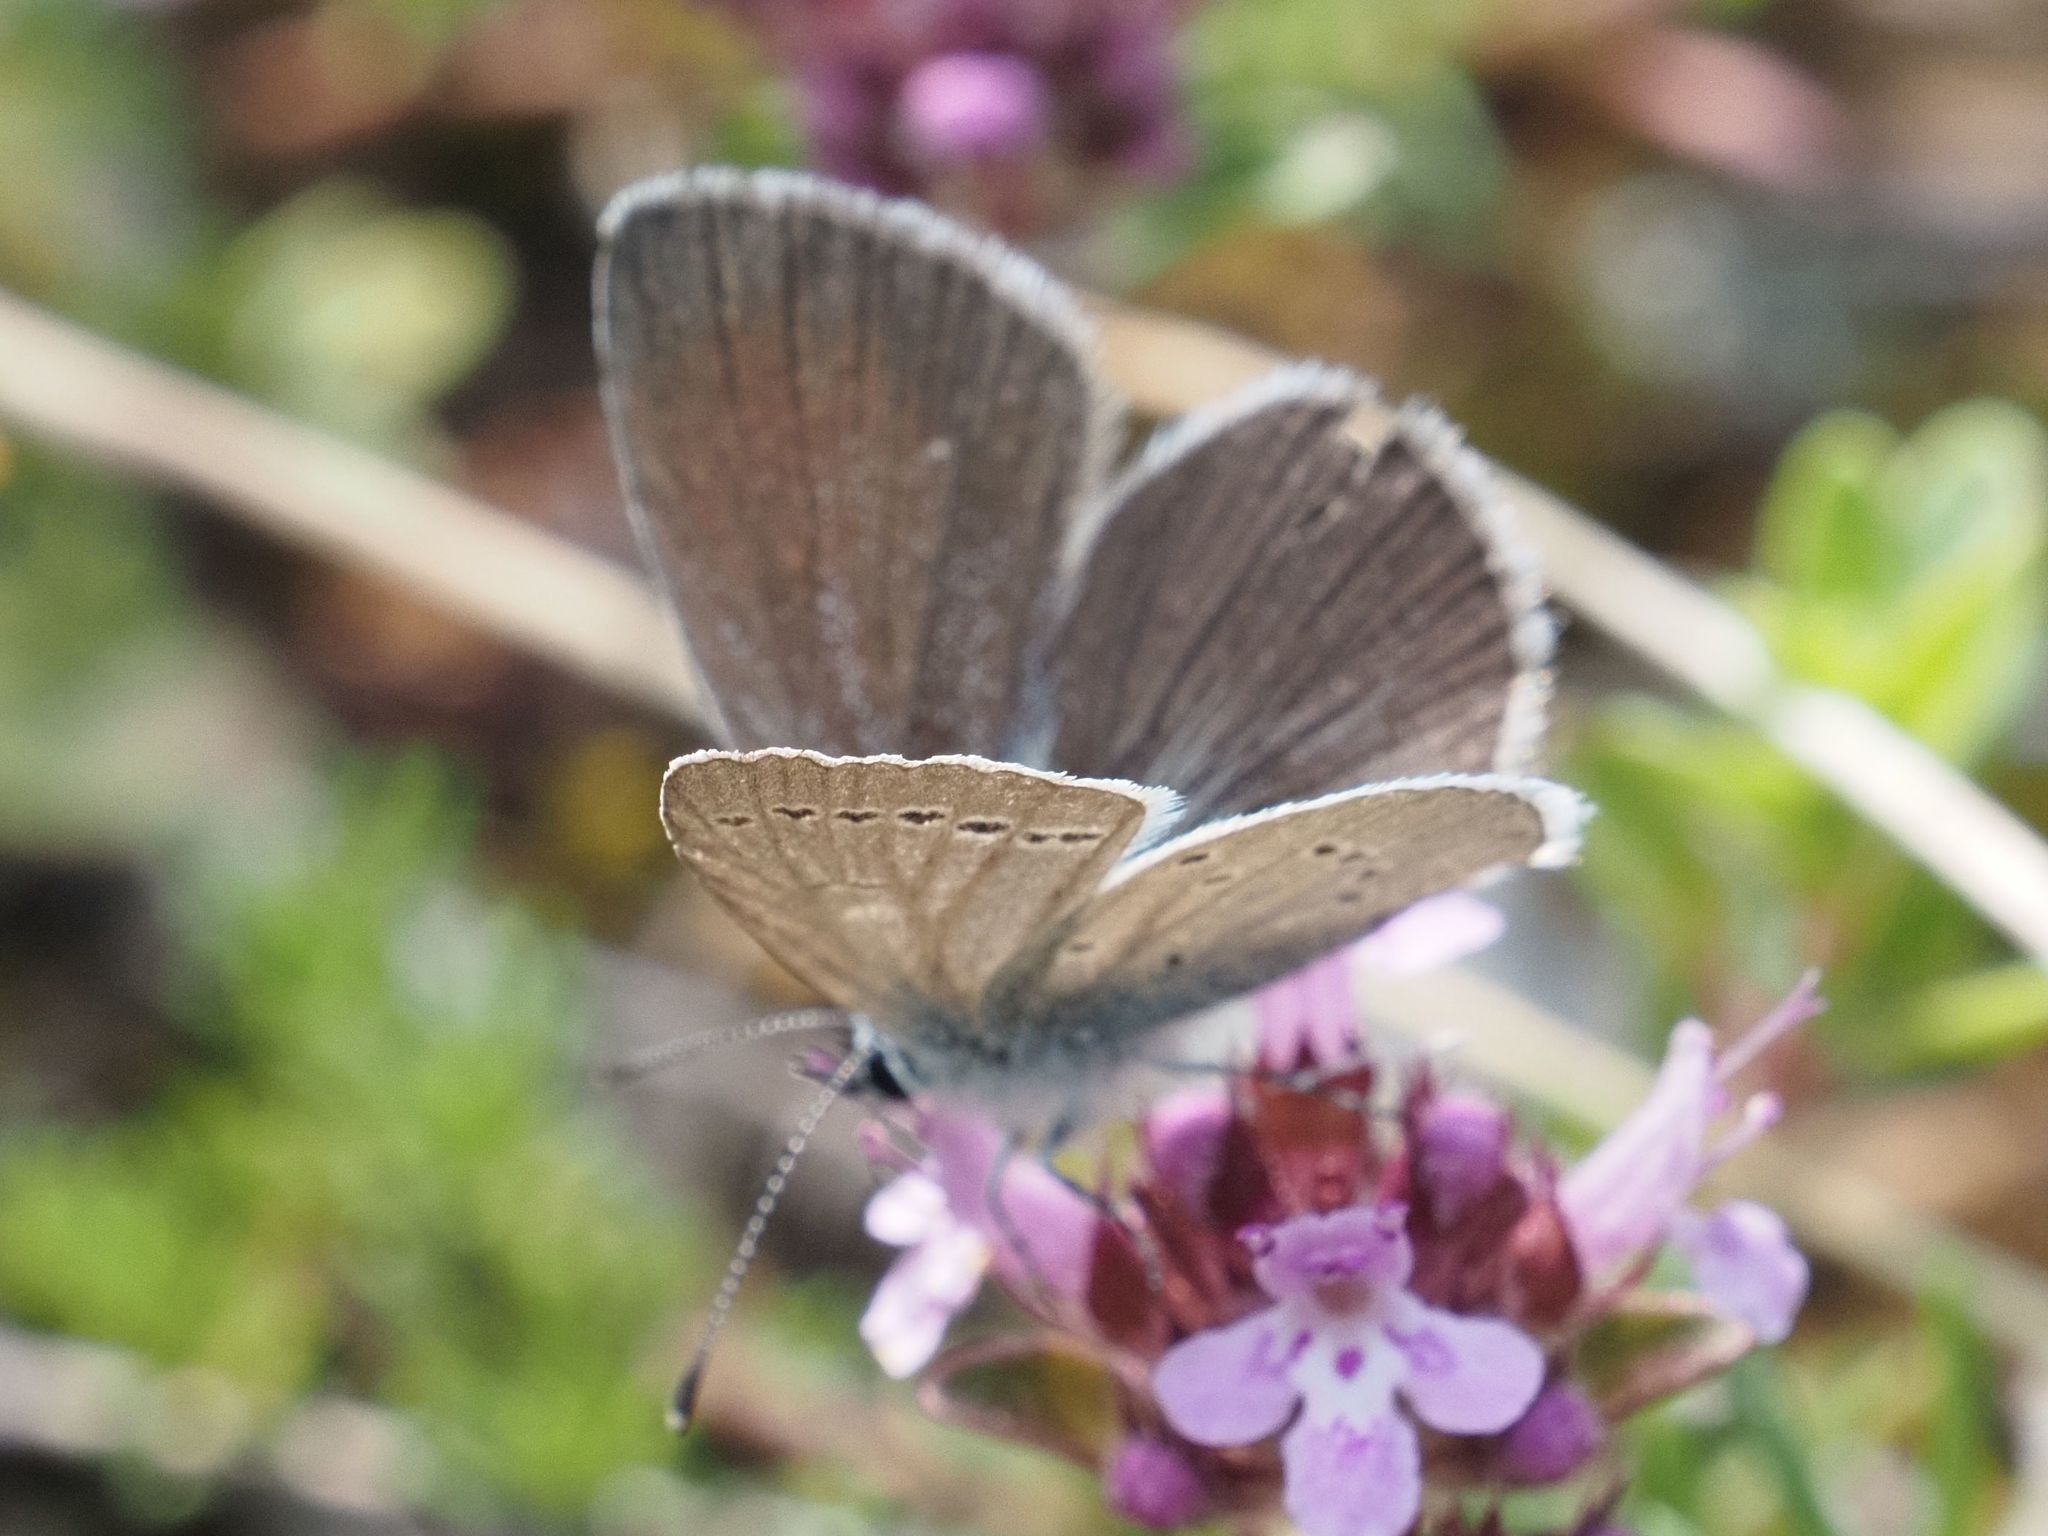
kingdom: Animalia
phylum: Arthropoda
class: Insecta
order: Lepidoptera
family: Lycaenidae
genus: Cupido
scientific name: Cupido minimus
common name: Small blue
